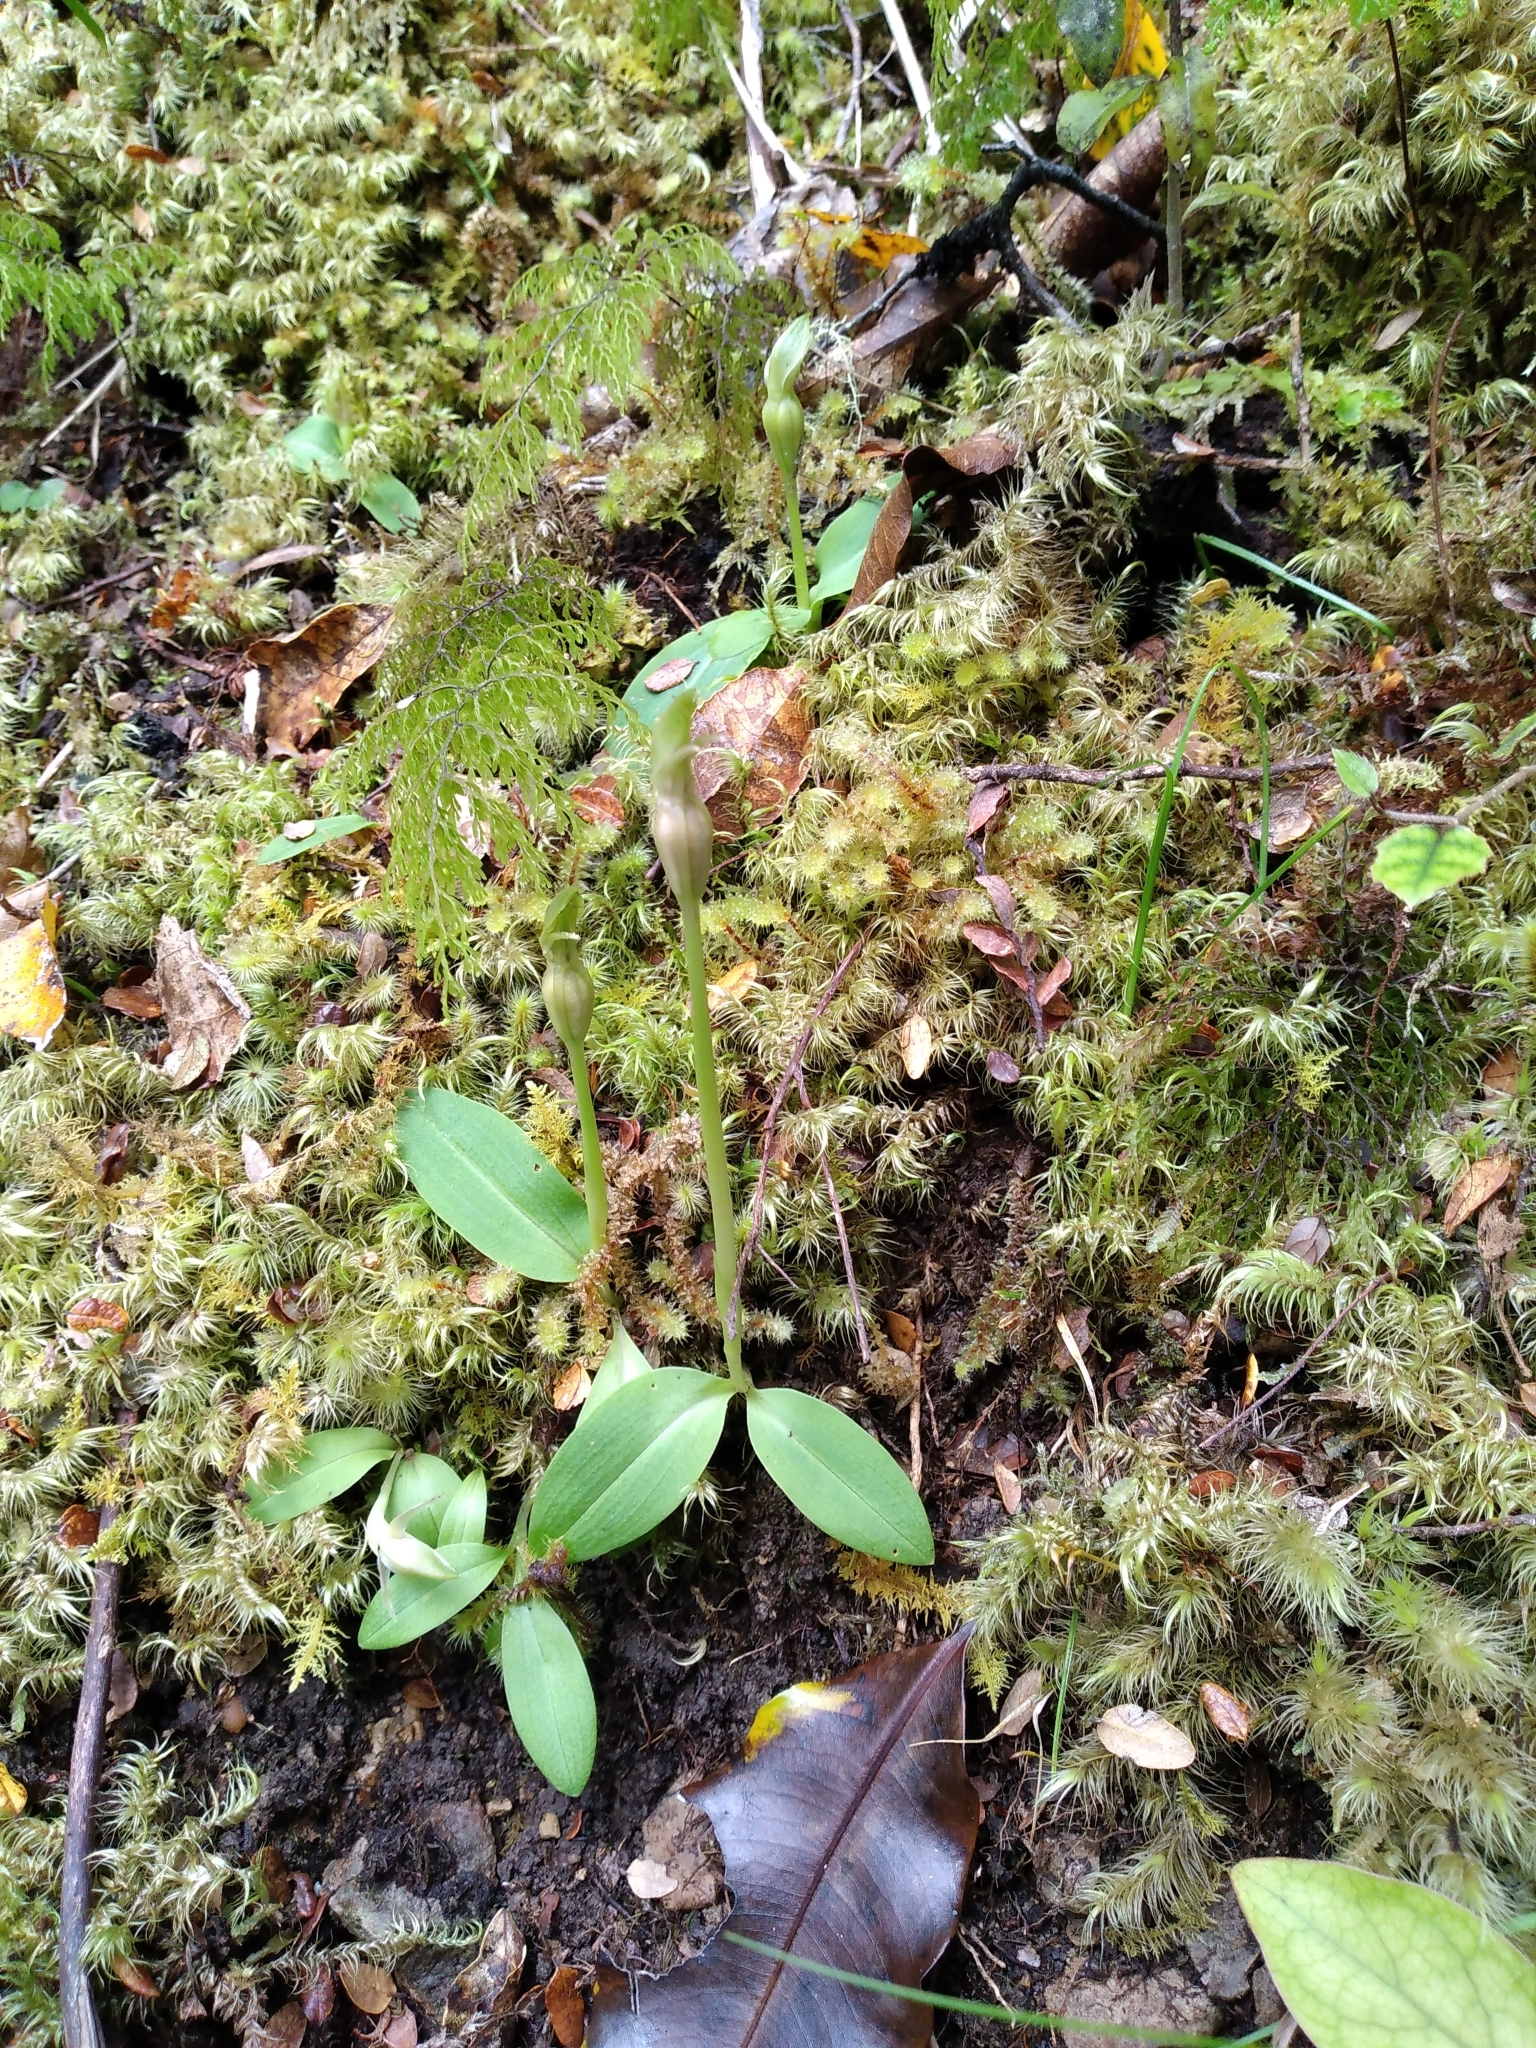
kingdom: Plantae
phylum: Tracheophyta
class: Liliopsida
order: Asparagales
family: Orchidaceae
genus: Chiloglottis
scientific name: Chiloglottis cornuta
